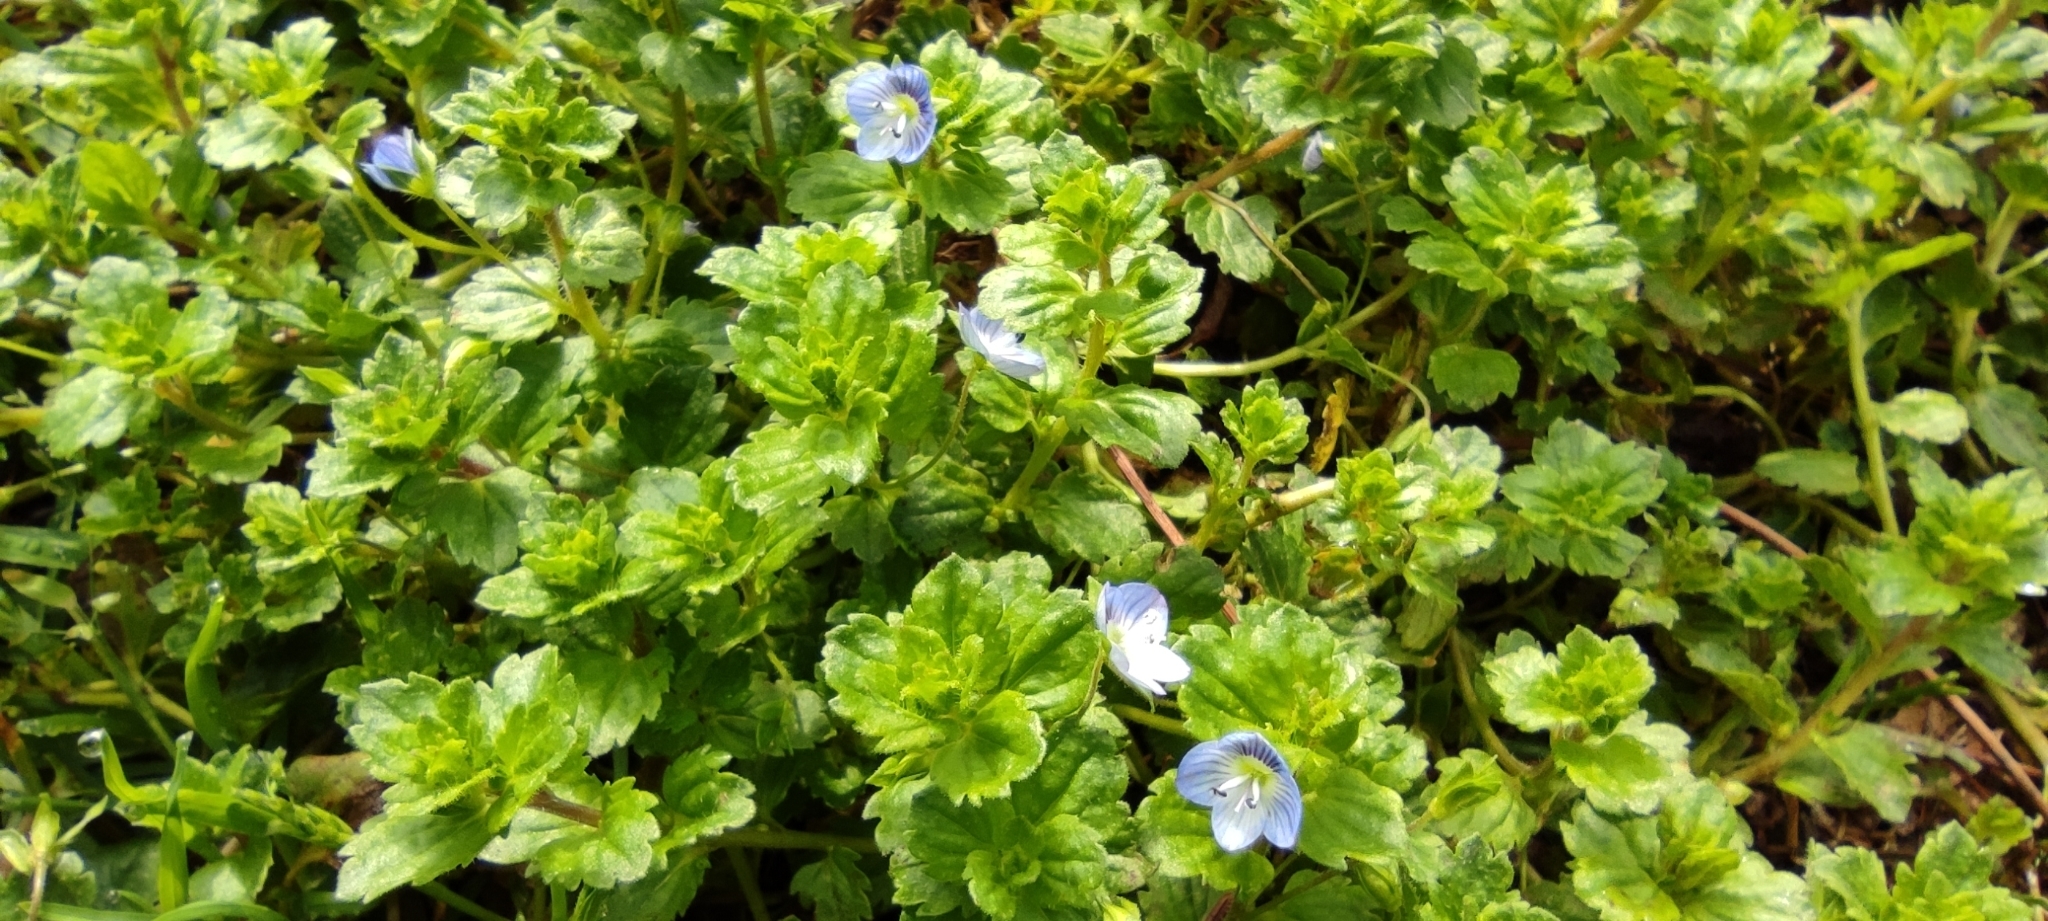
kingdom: Plantae
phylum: Tracheophyta
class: Magnoliopsida
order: Lamiales
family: Plantaginaceae
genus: Veronica
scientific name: Veronica persica
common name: Common field-speedwell
